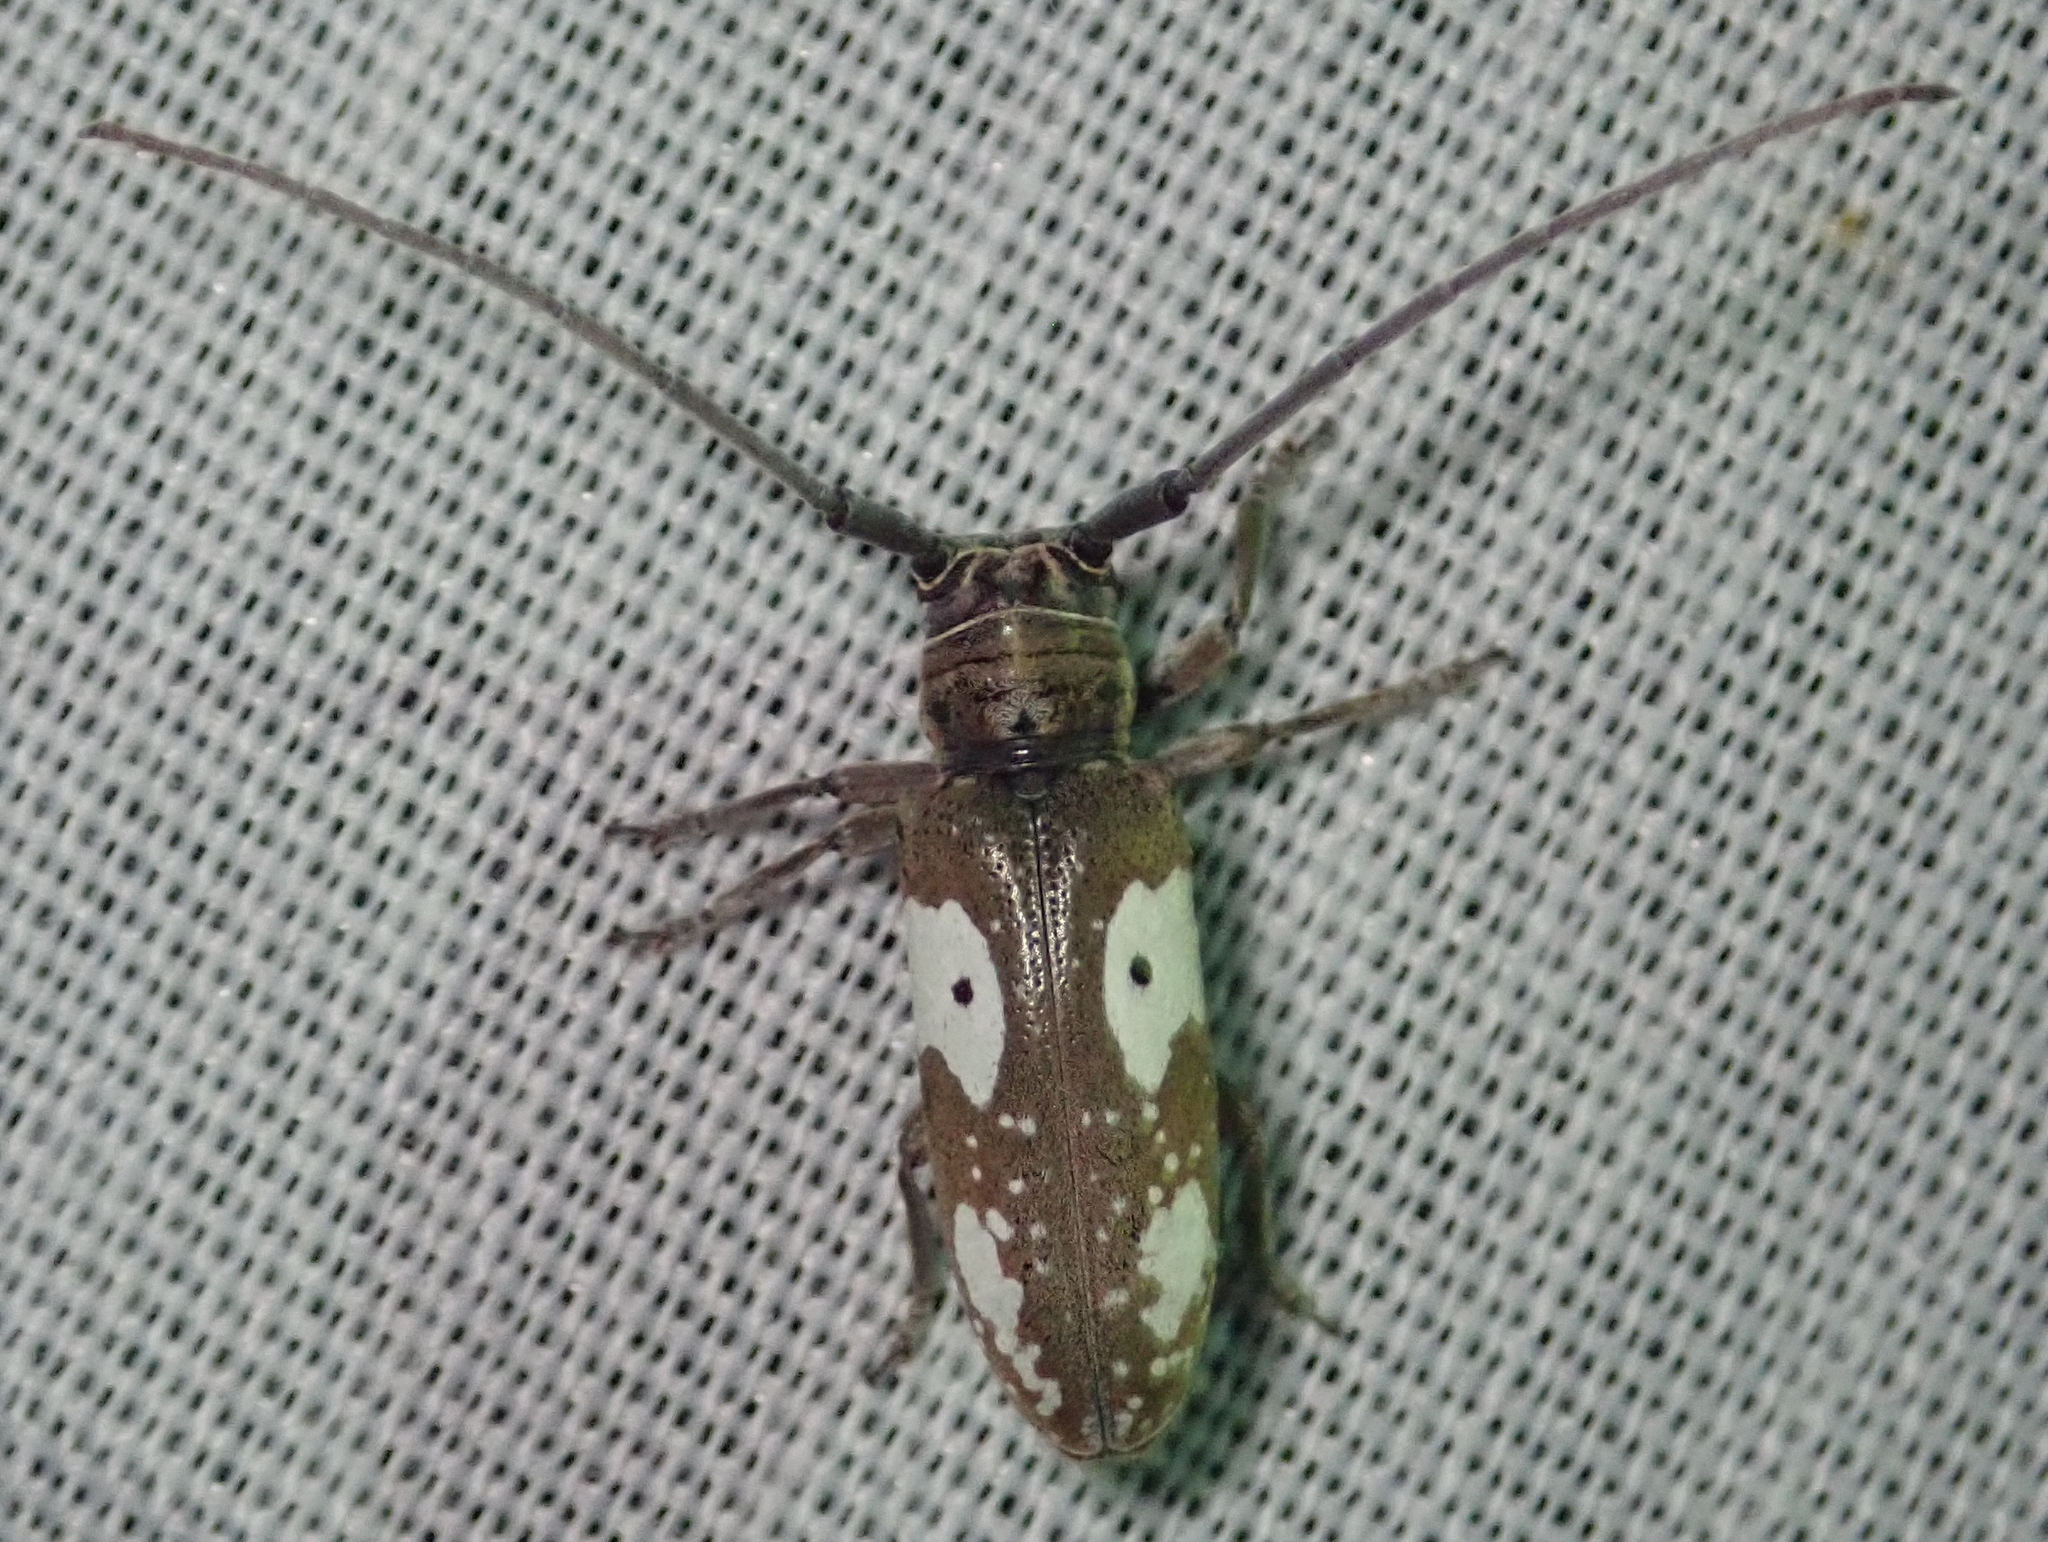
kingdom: Animalia
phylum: Arthropoda
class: Insecta
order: Coleoptera
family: Cerambycidae
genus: Prosopocera
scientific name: Prosopocera blairiella
